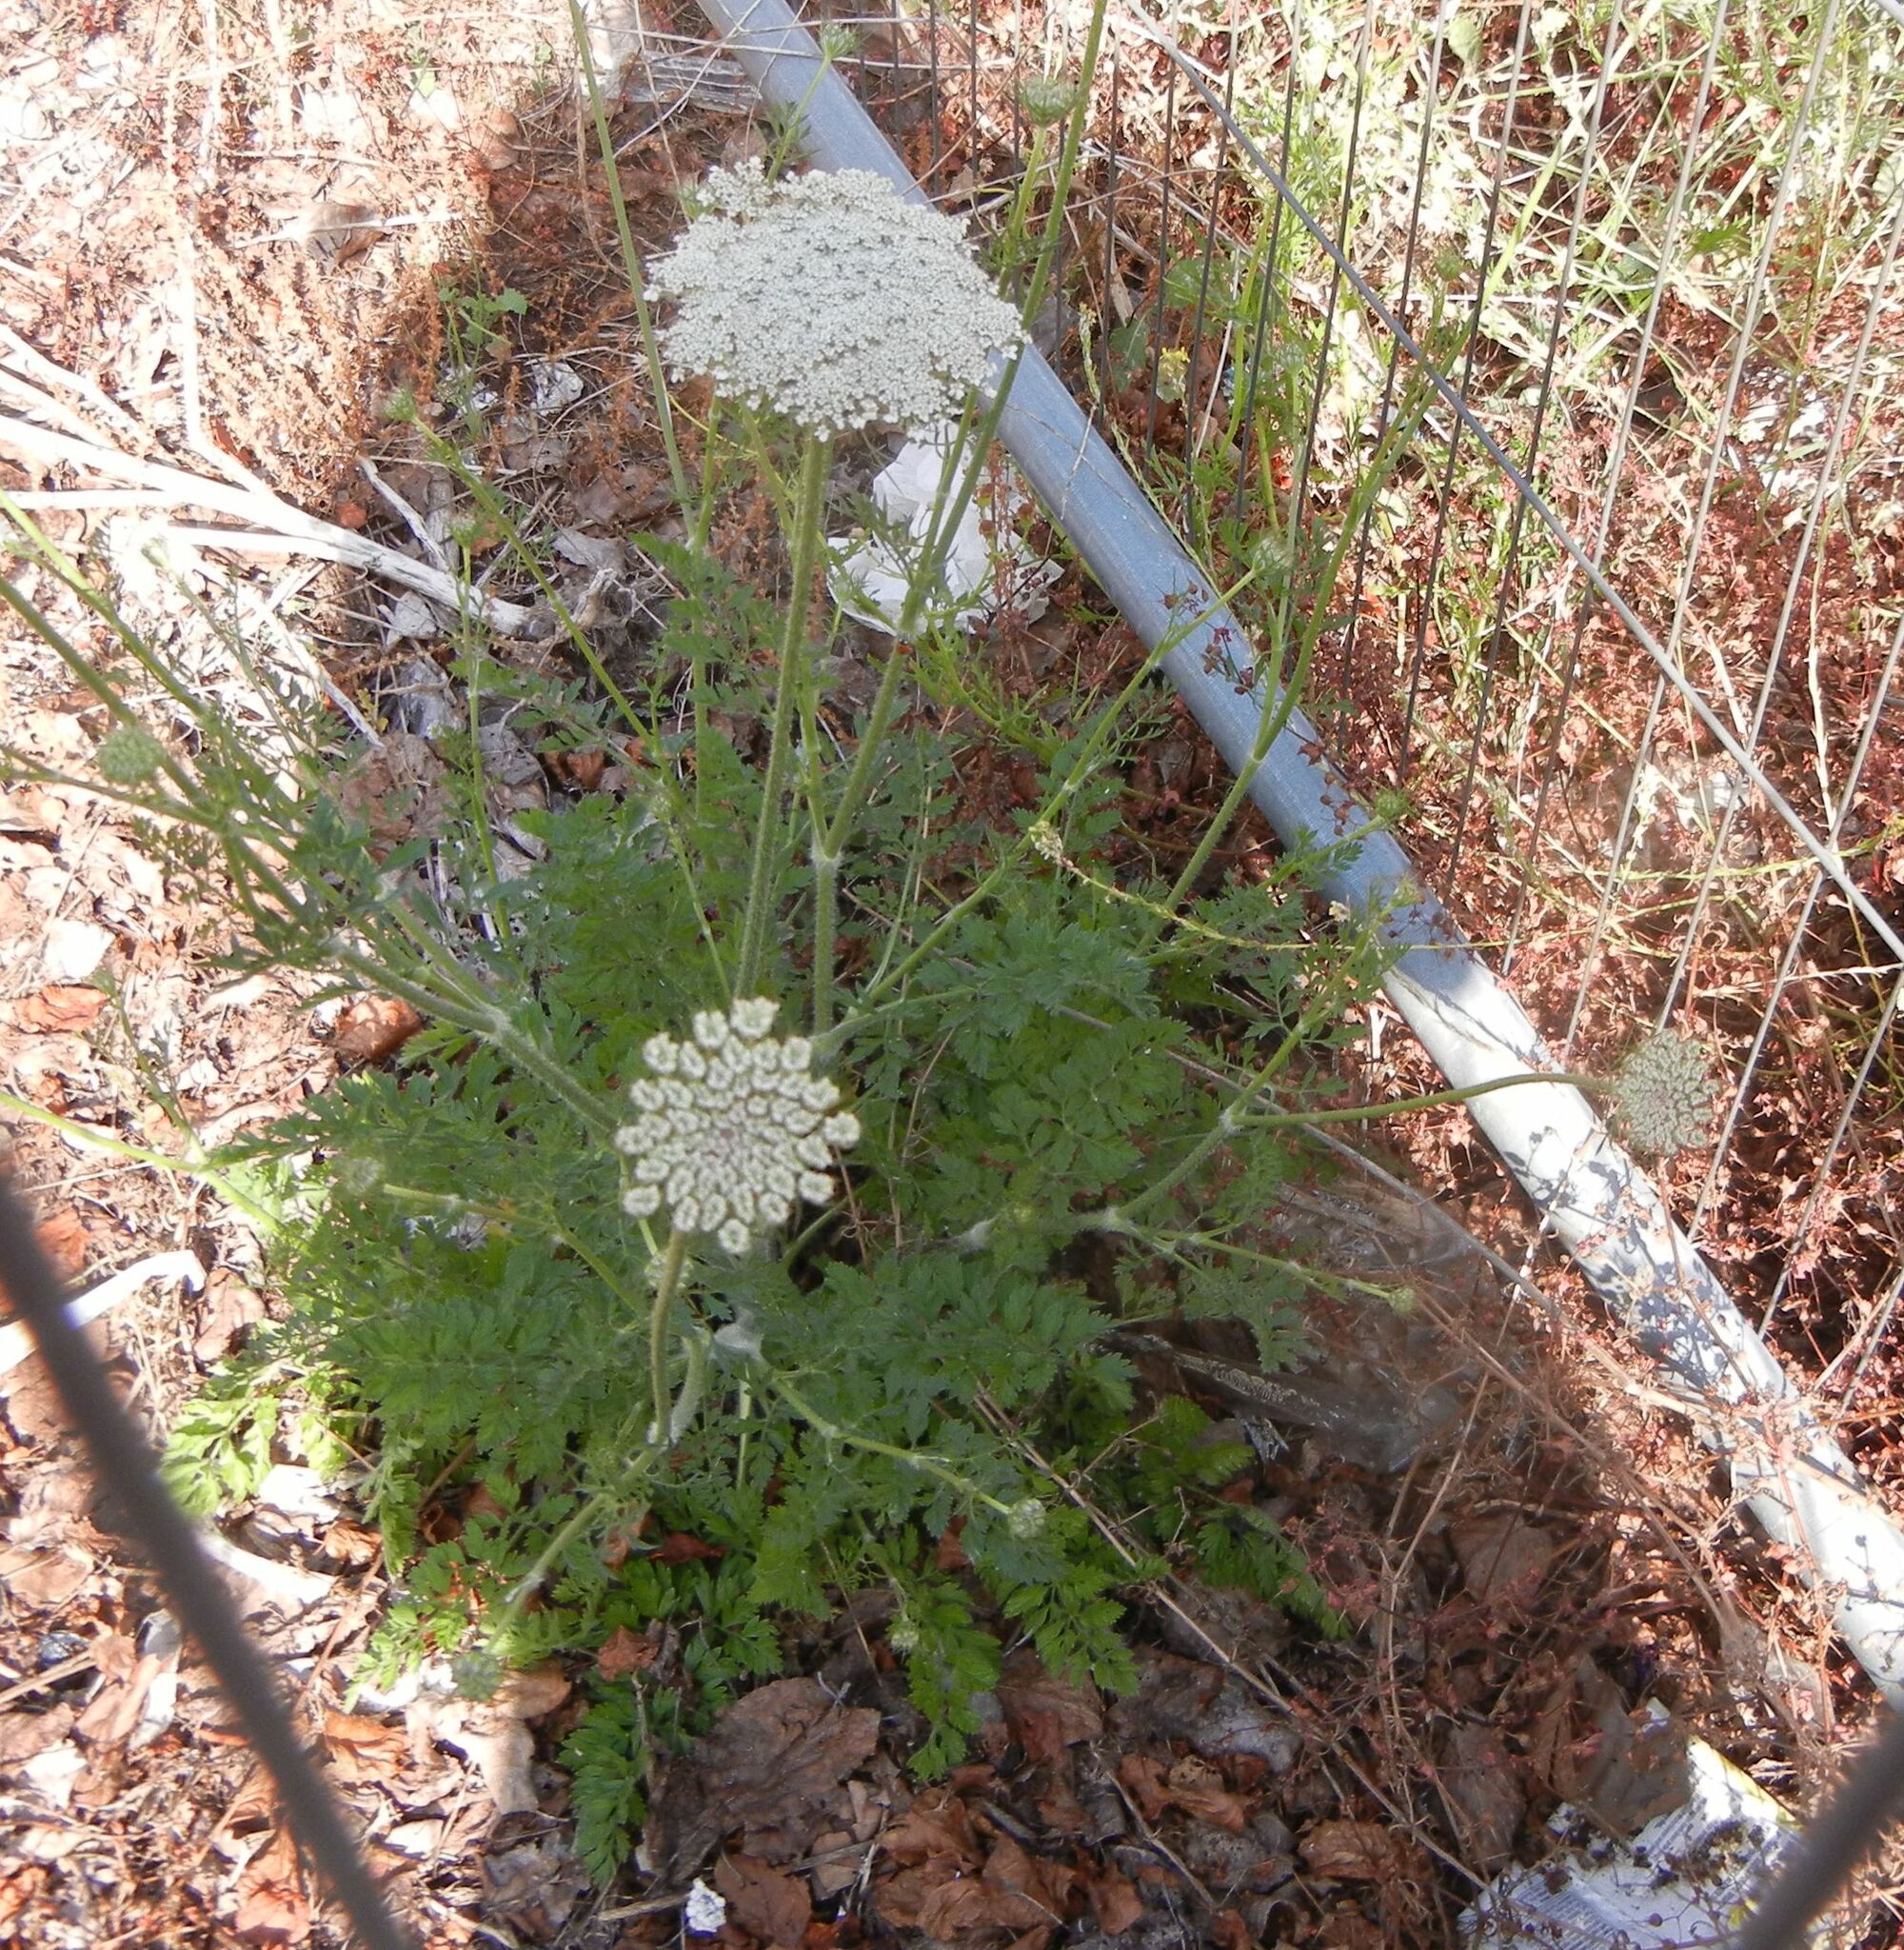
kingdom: Plantae
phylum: Tracheophyta
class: Magnoliopsida
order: Apiales
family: Apiaceae
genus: Daucus
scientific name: Daucus carota
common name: Wild carrot
